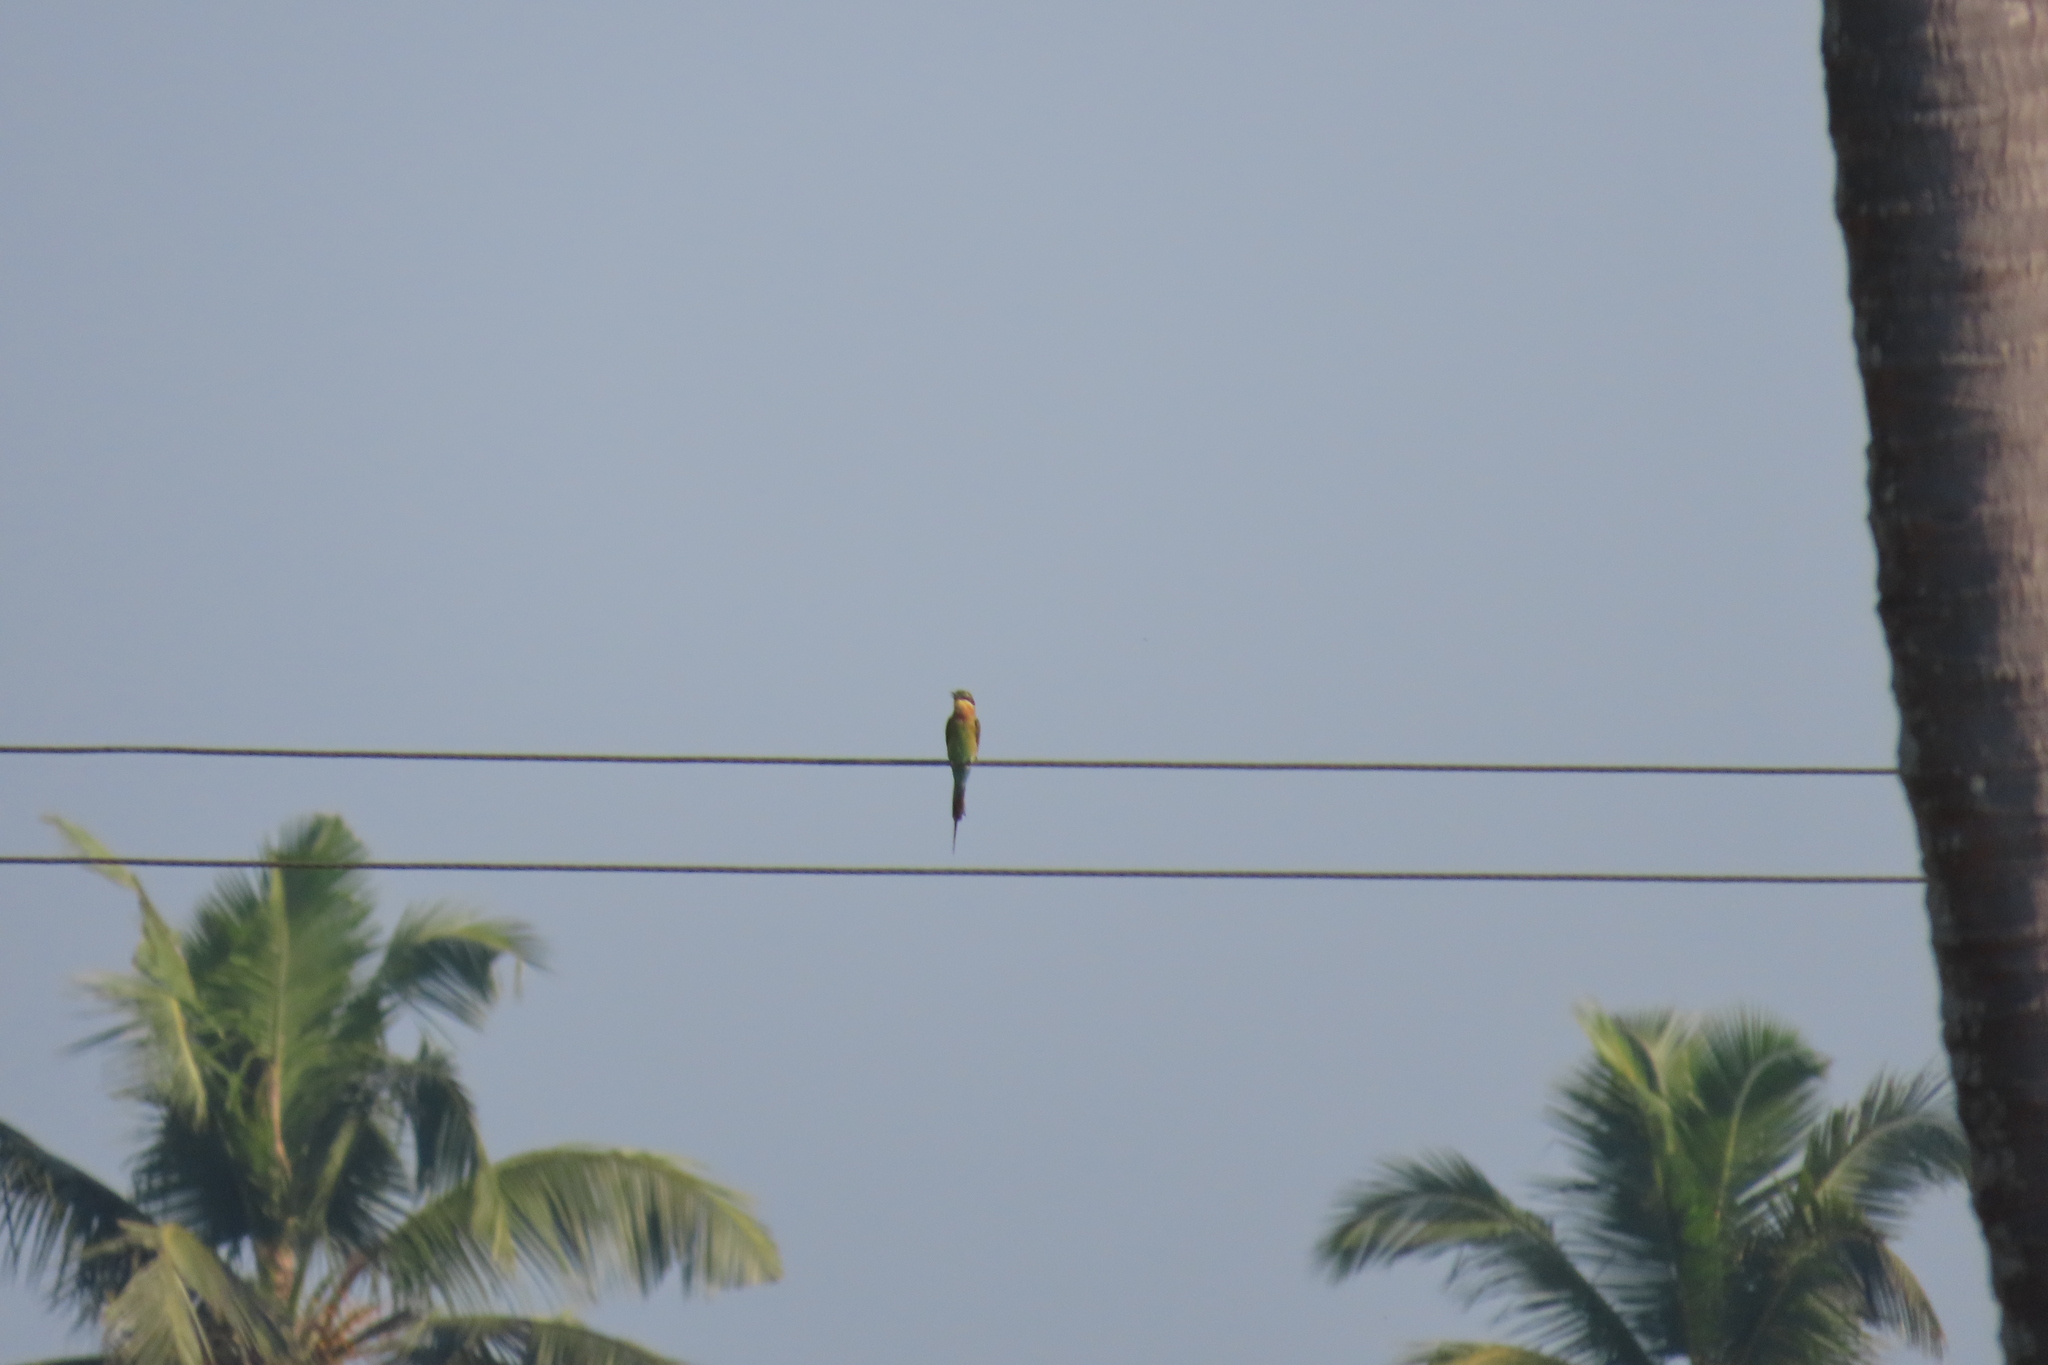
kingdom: Animalia
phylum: Chordata
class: Aves
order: Coraciiformes
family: Meropidae
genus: Merops
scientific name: Merops philippinus
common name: Blue-tailed bee-eater
